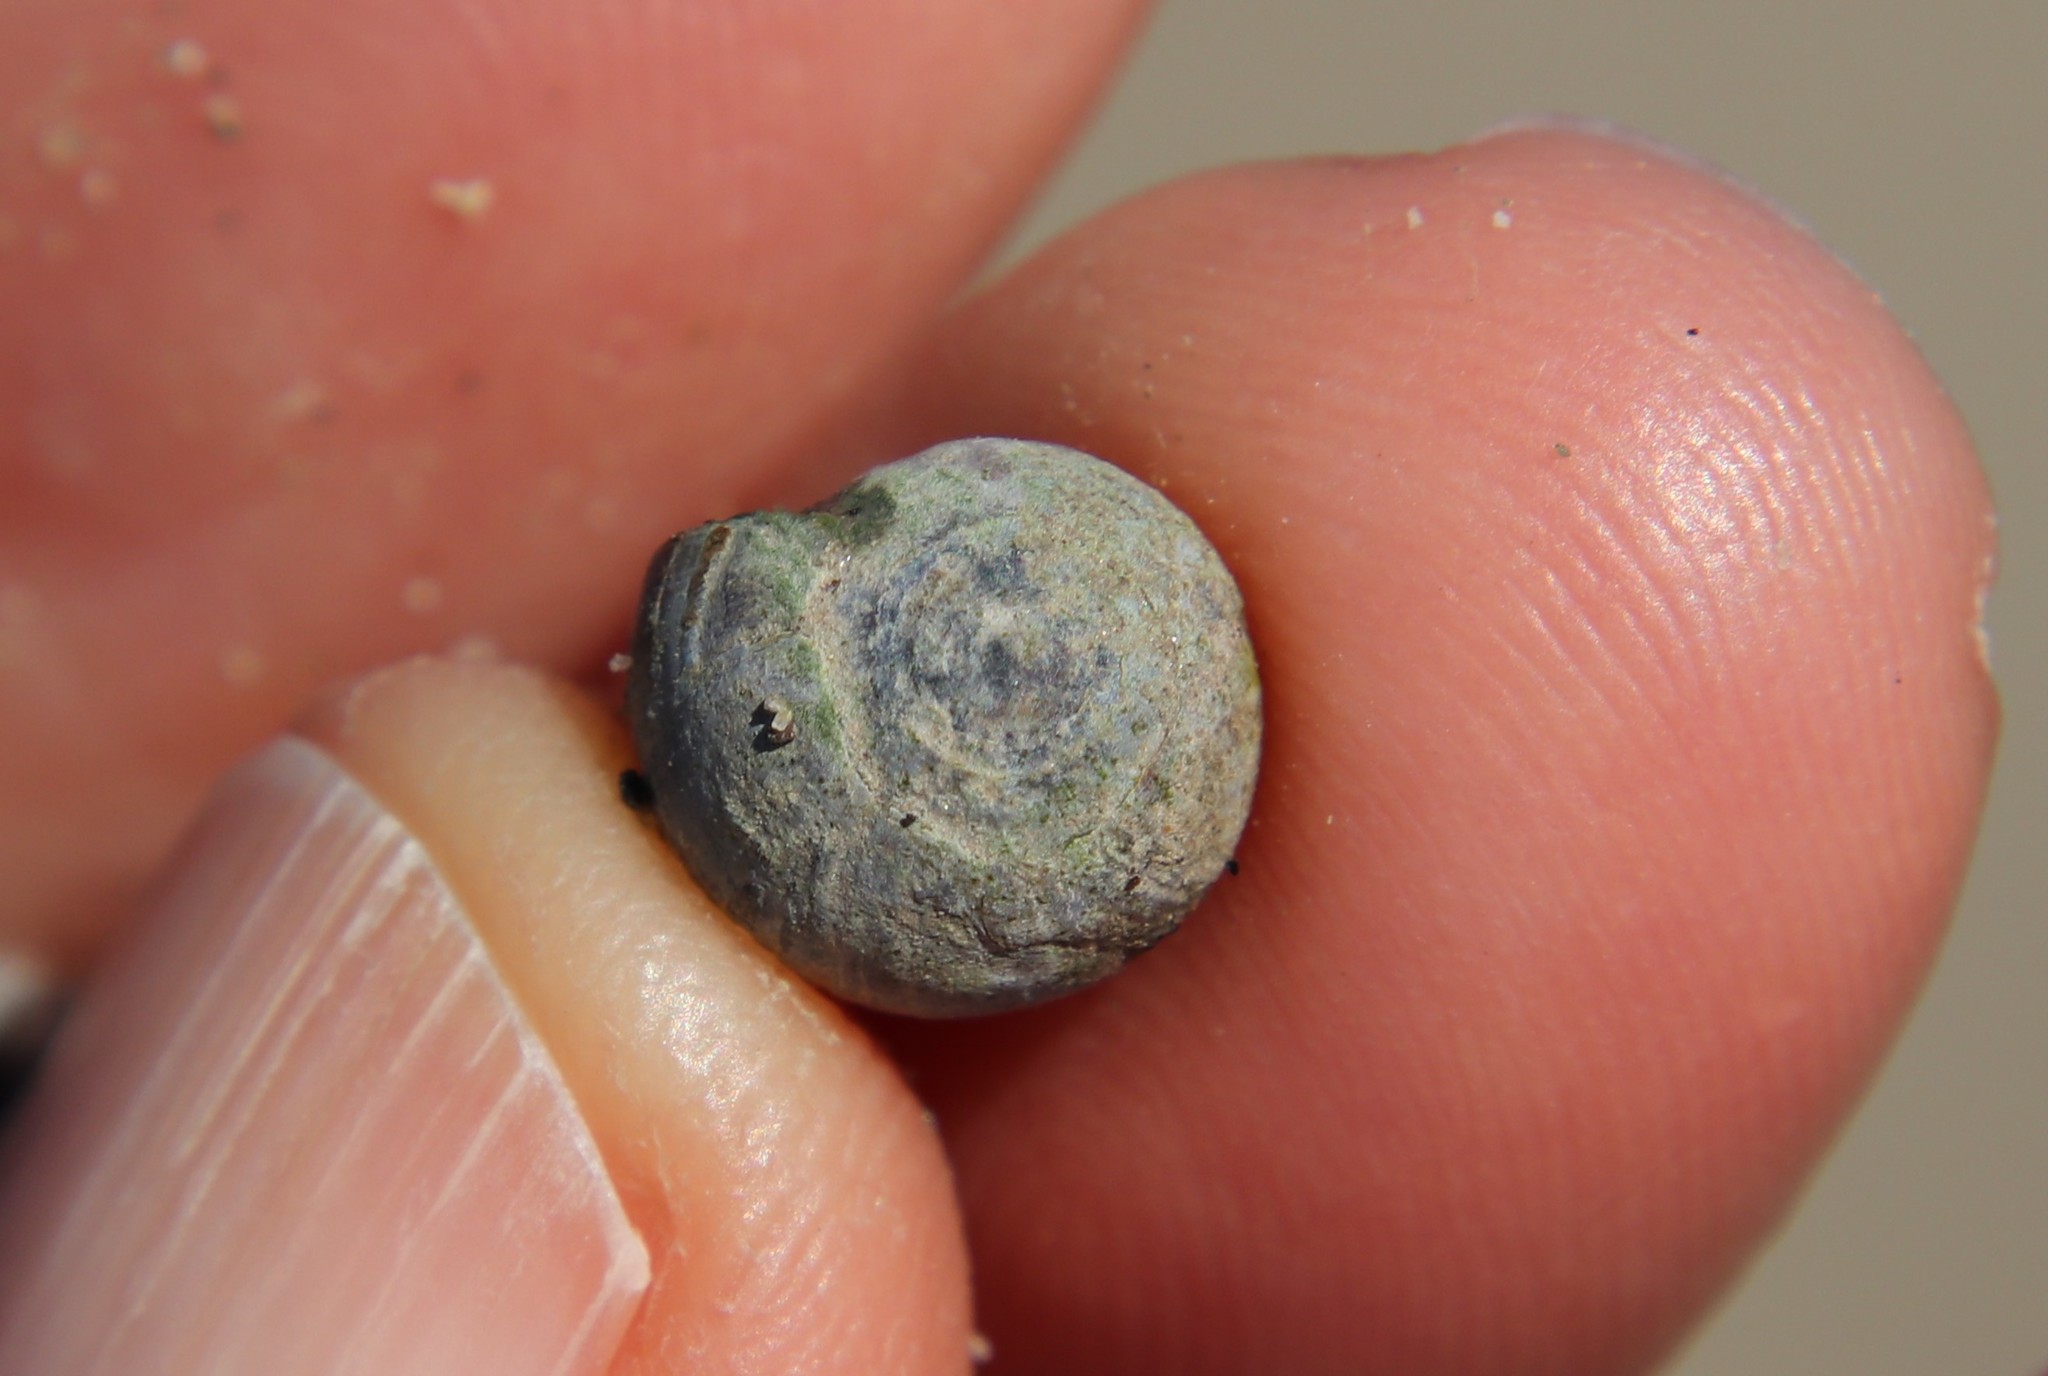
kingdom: Animalia
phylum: Mollusca
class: Gastropoda
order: Ellobiida
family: Ellobiidae
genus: Melampus
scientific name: Melampus olivaceus
